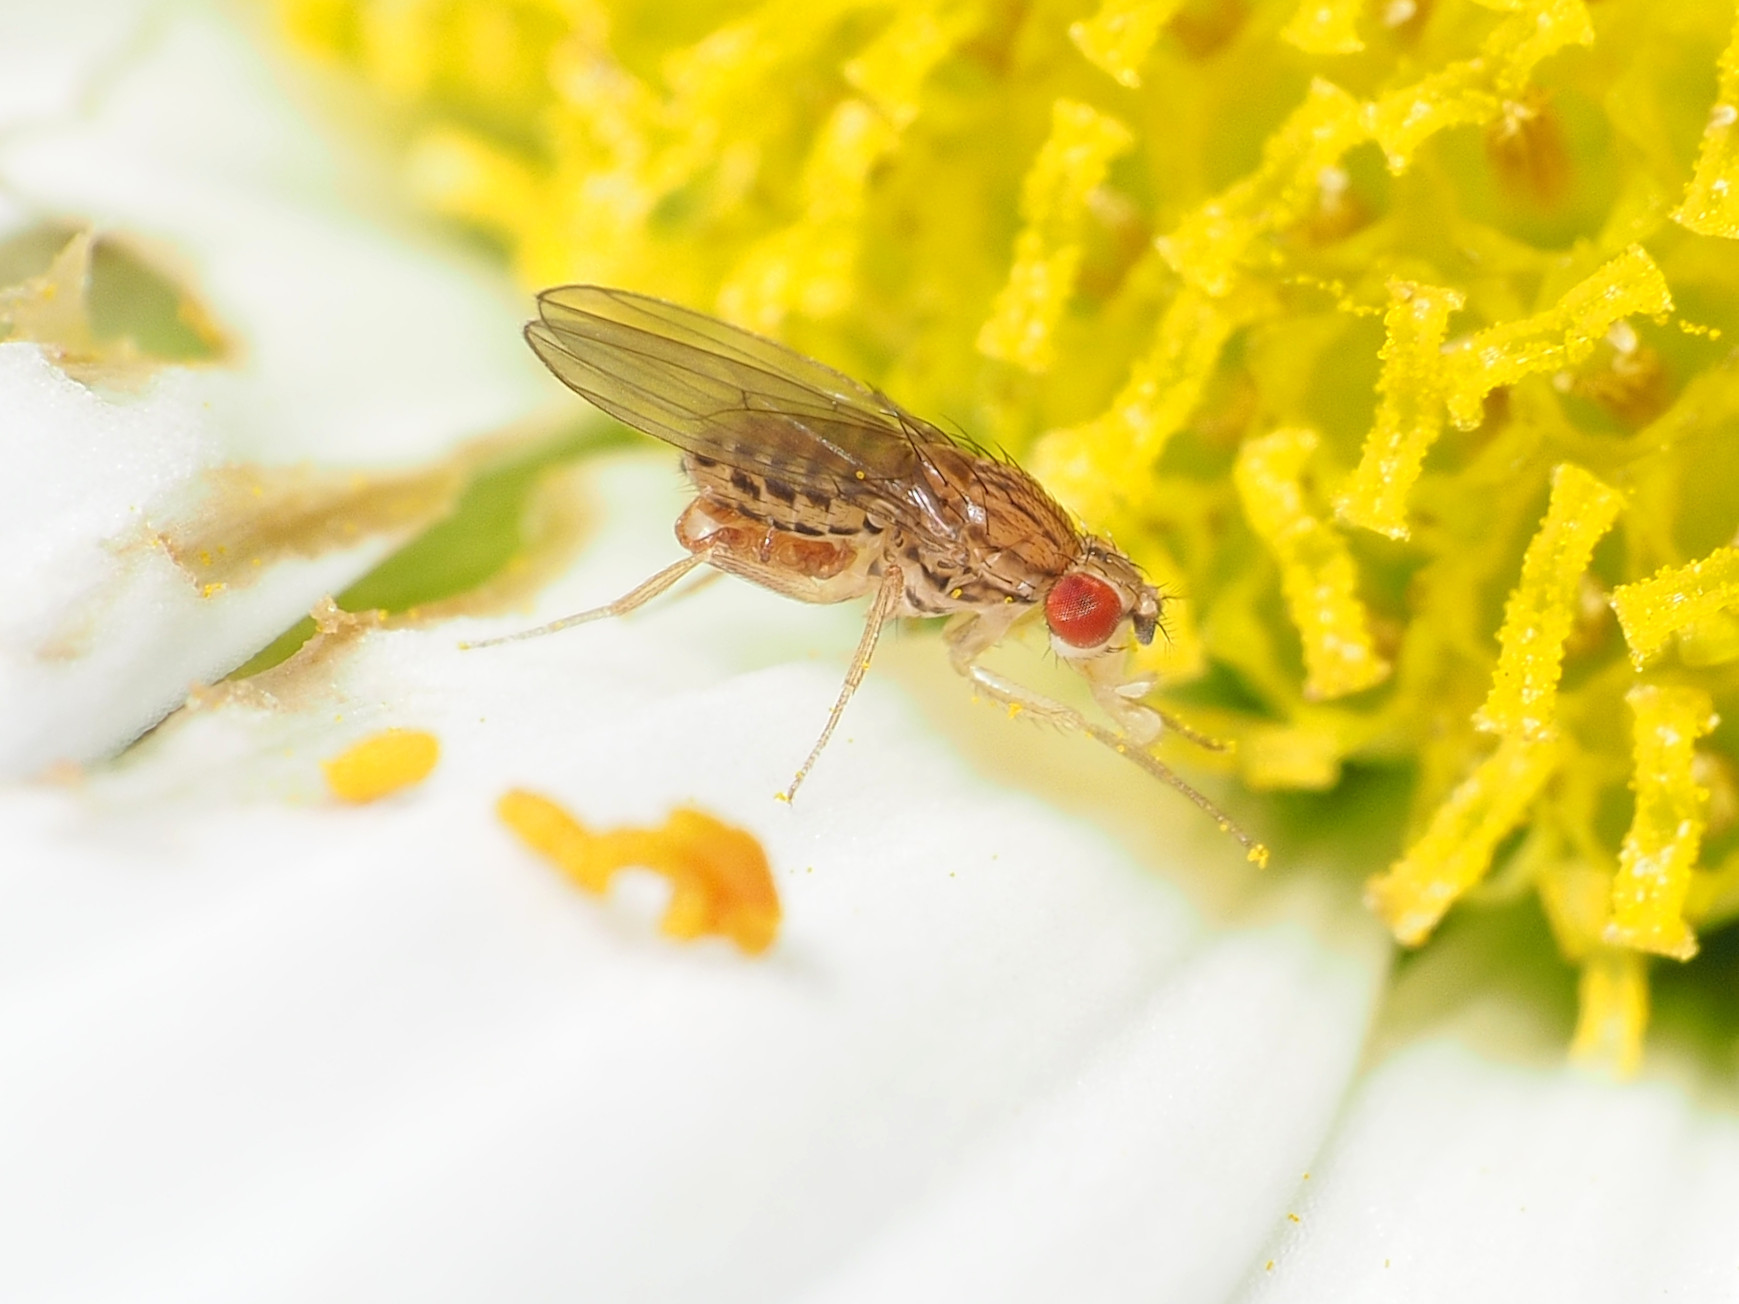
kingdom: Animalia
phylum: Arthropoda
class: Insecta
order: Diptera
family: Drosophilidae
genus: Drosophila
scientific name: Drosophila busckii
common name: Pomace fly
